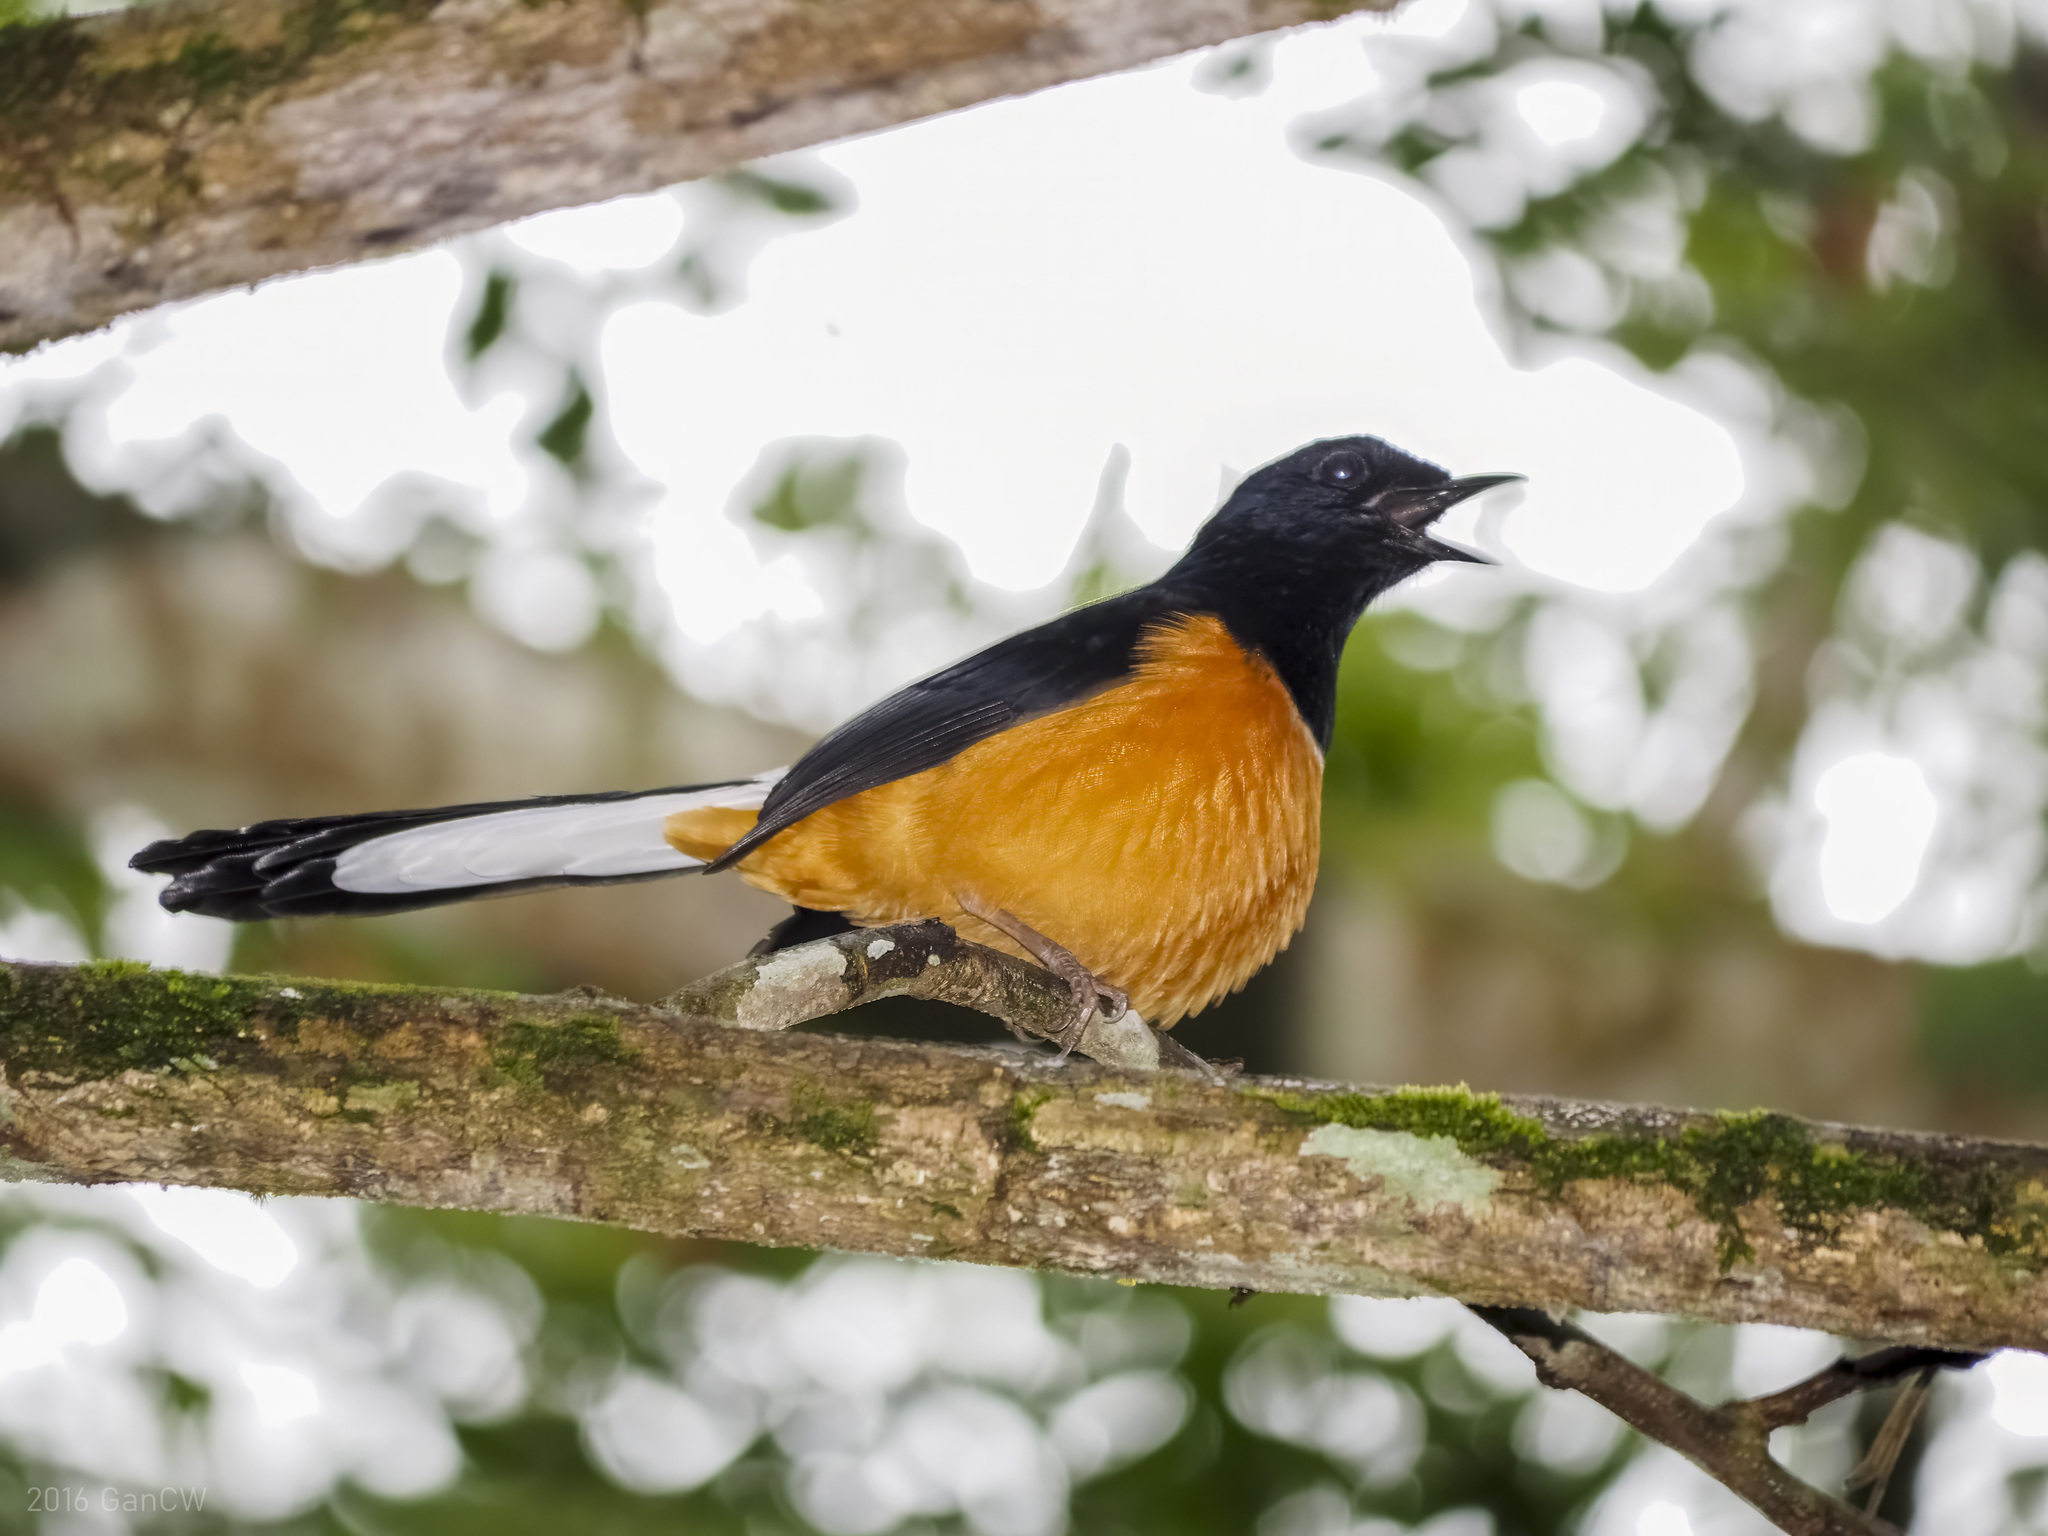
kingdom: Animalia
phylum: Chordata
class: Aves
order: Passeriformes
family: Muscicapidae
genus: Copsychus
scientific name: Copsychus stricklandii
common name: White-crowned shama
